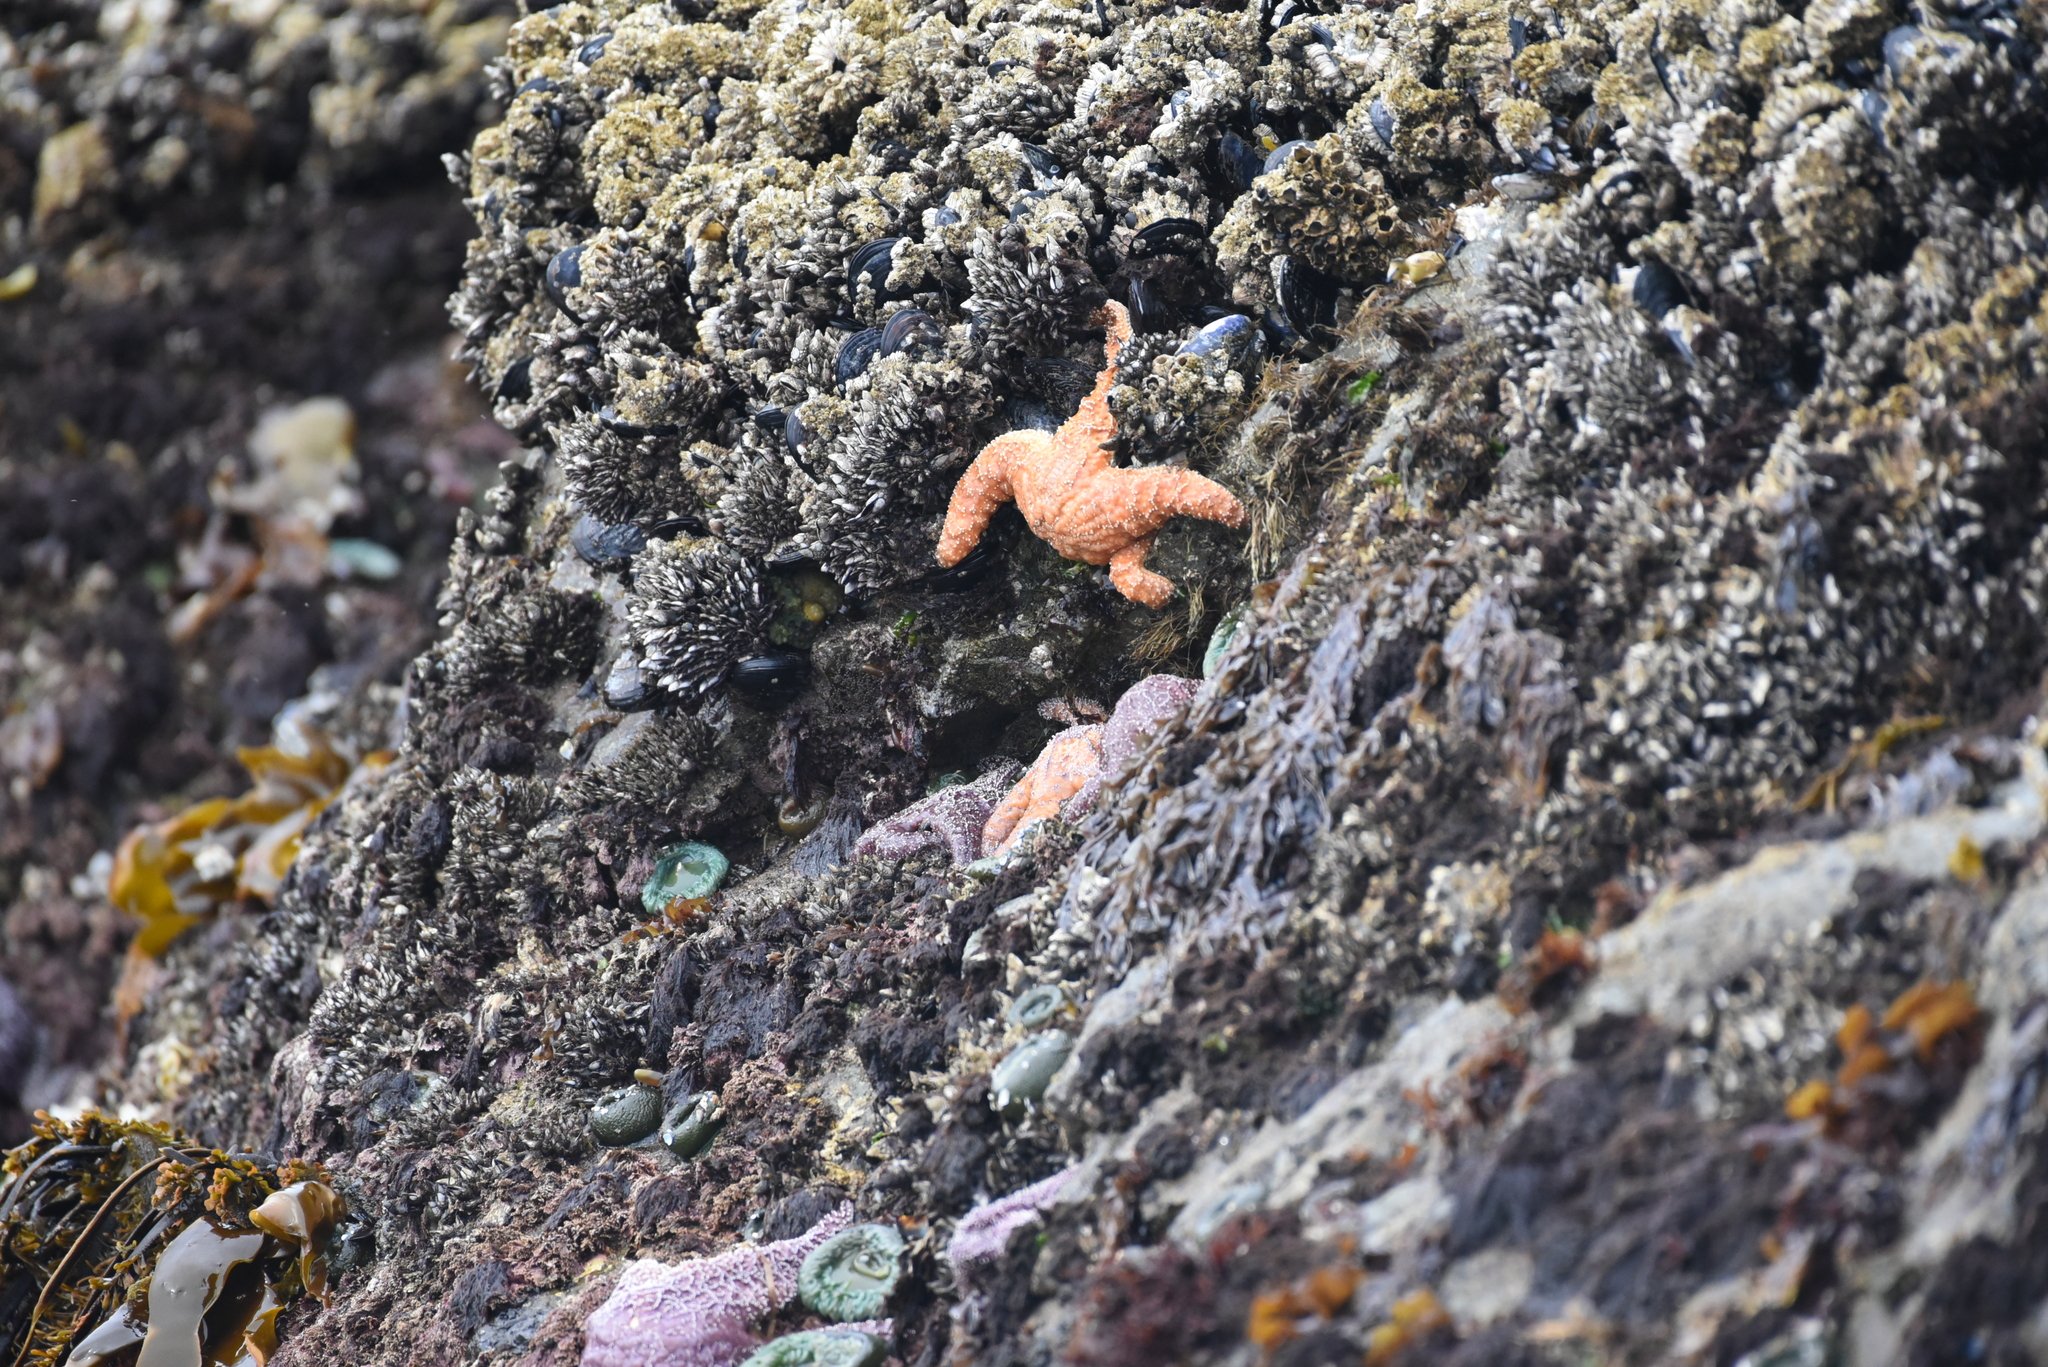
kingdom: Animalia
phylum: Echinodermata
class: Asteroidea
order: Forcipulatida
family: Asteriidae
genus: Pisaster
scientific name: Pisaster ochraceus
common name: Ochre stars
